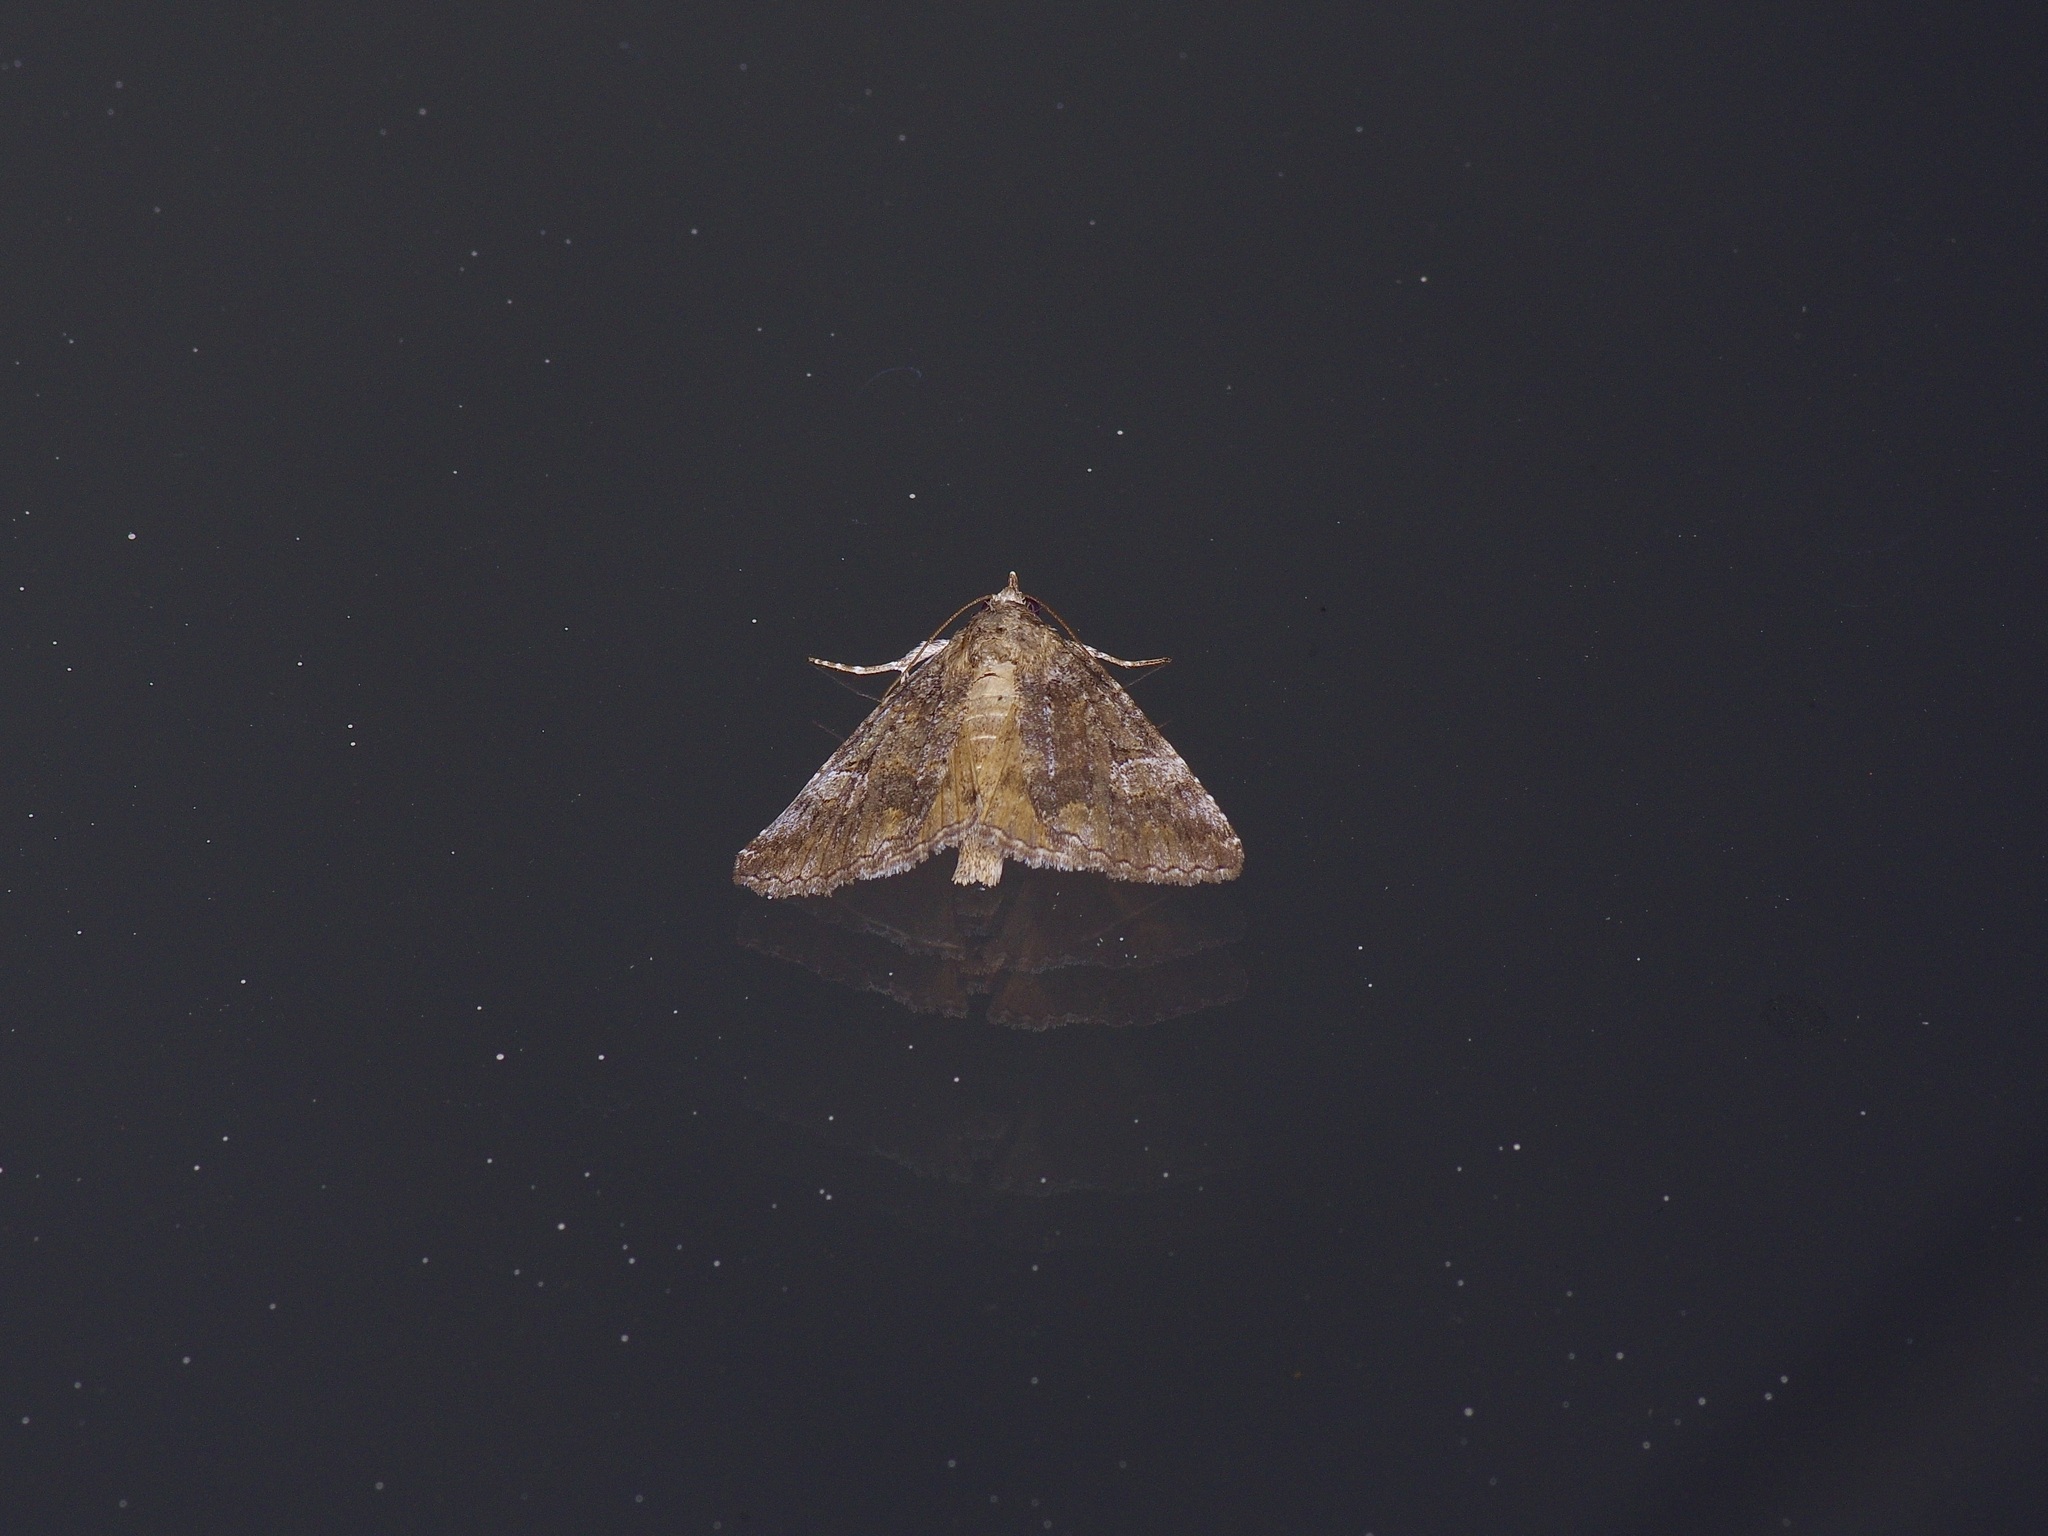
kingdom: Animalia
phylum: Arthropoda
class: Insecta
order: Lepidoptera
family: Erebidae
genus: Eubolina
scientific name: Eubolina impartialis
